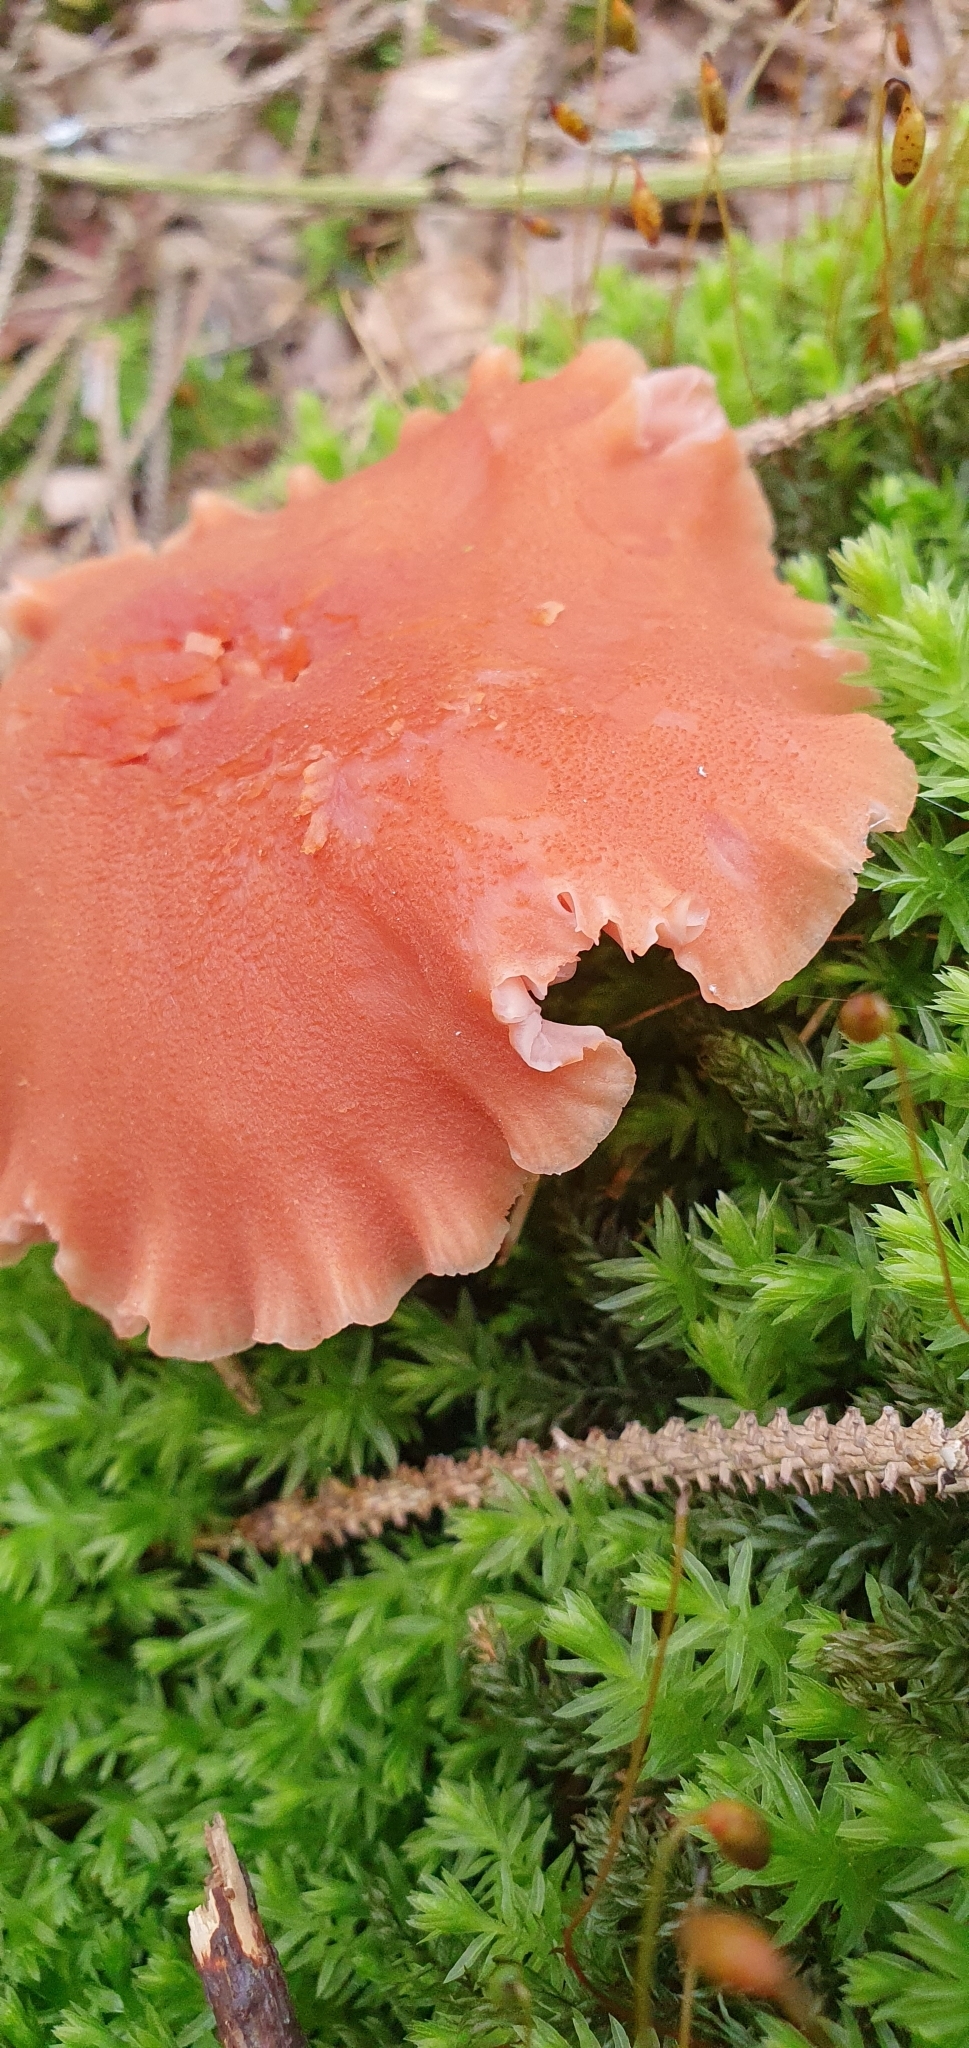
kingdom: Fungi
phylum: Basidiomycota
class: Agaricomycetes
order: Agaricales
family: Hydnangiaceae
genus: Laccaria
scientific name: Laccaria bicolor
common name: Bicoloured deceiver
